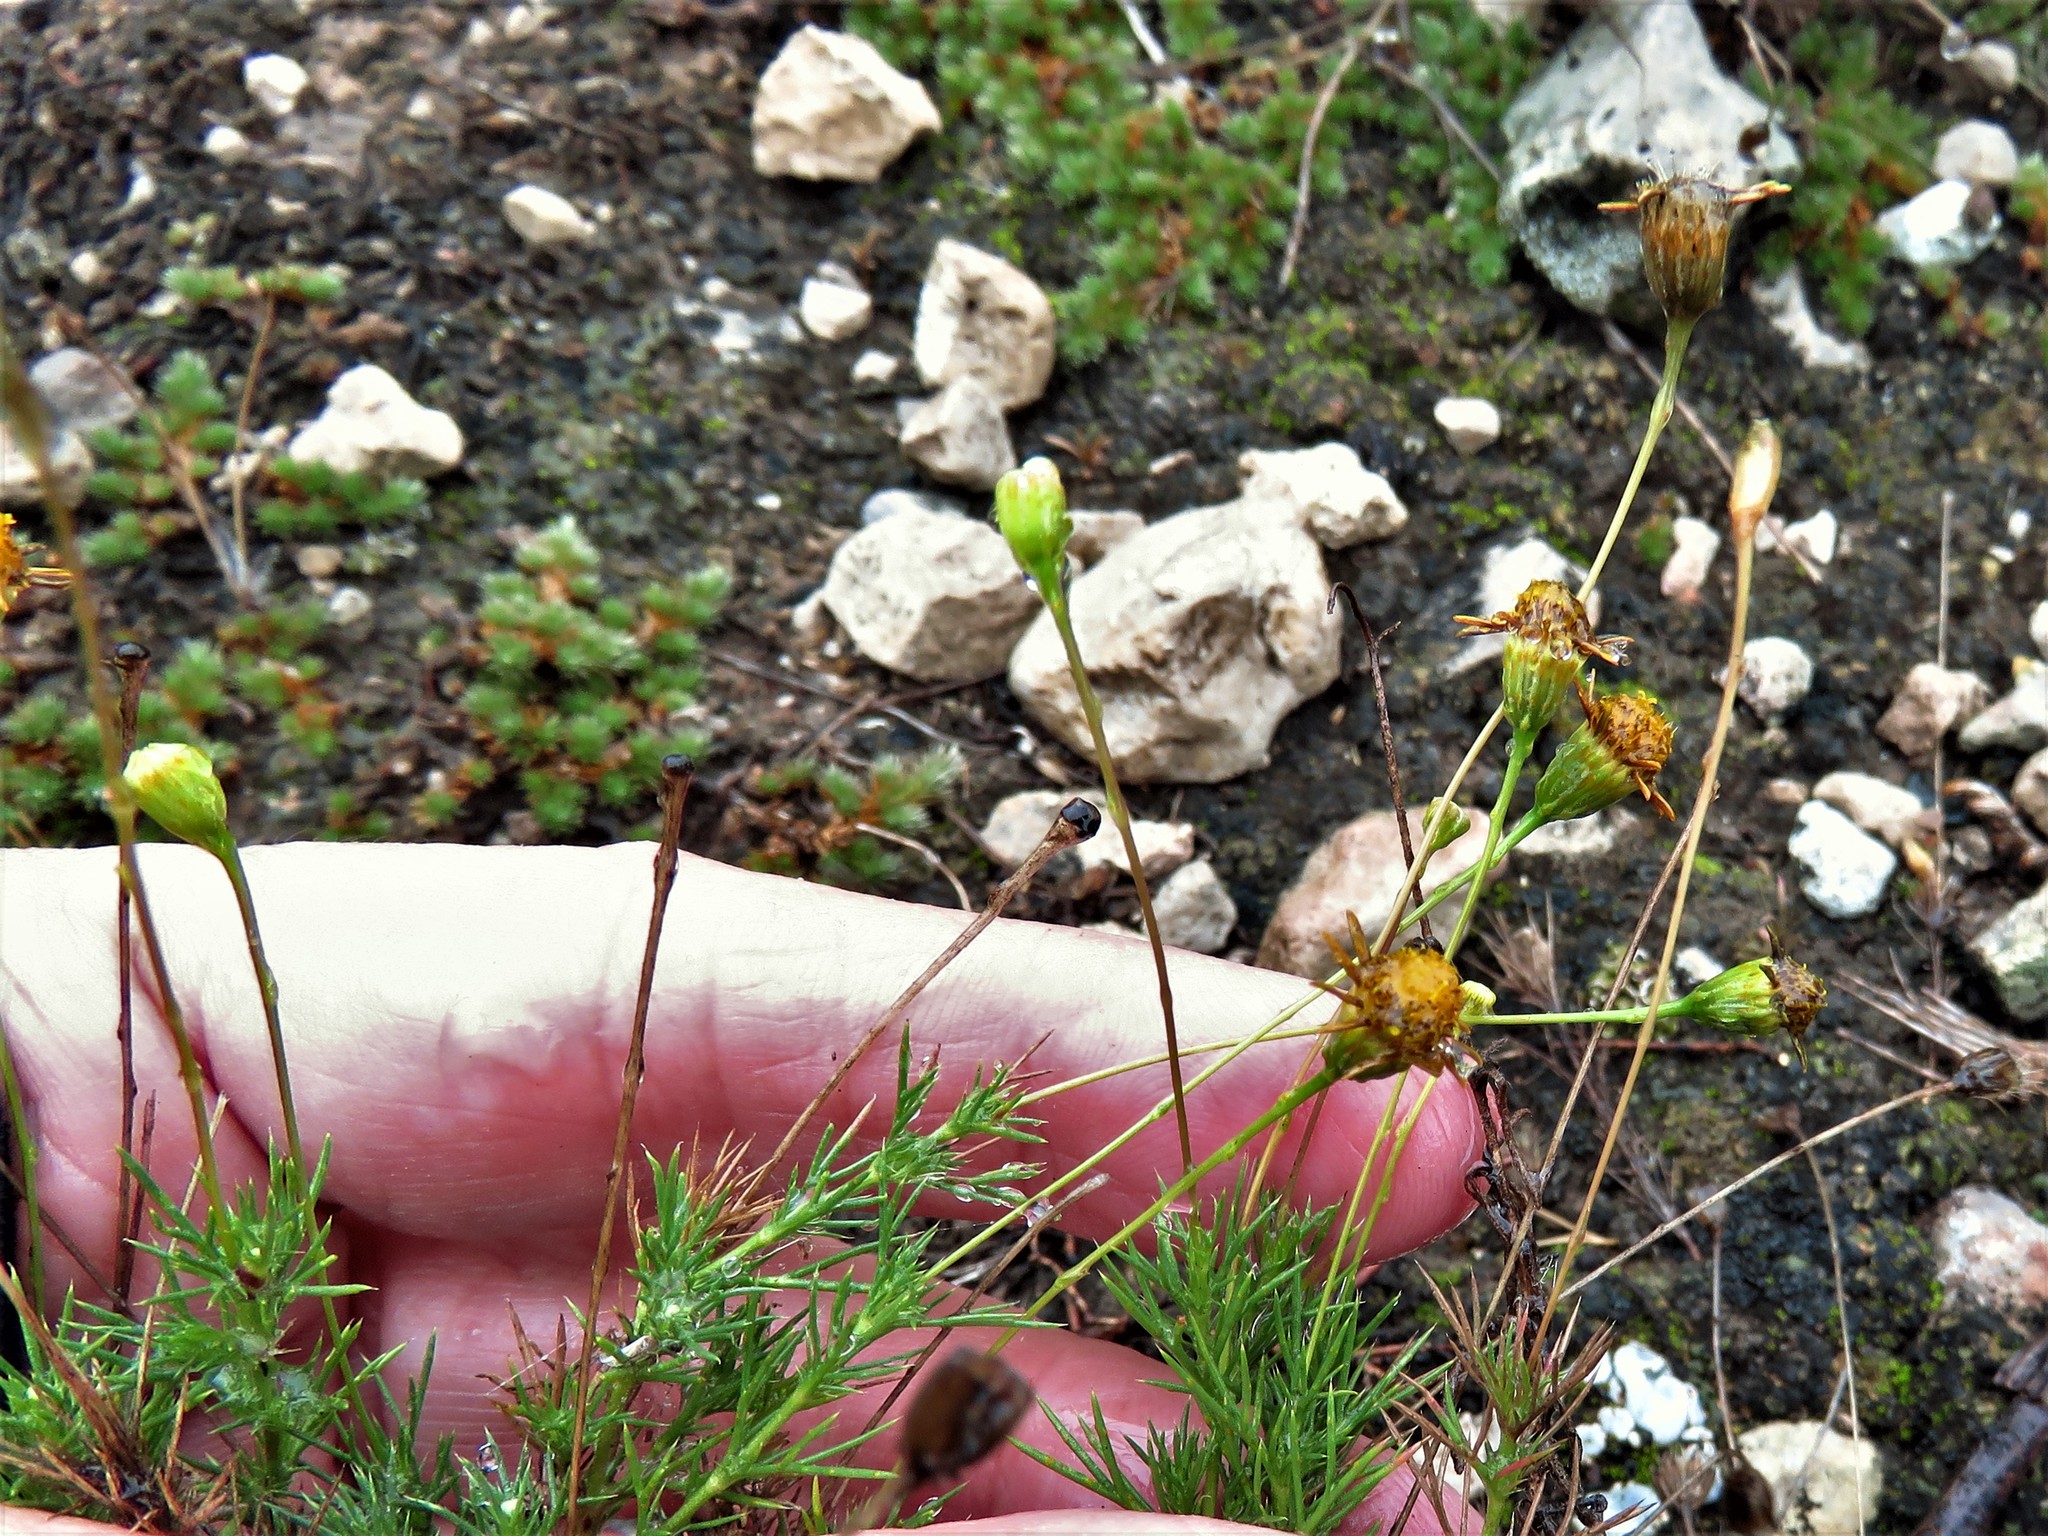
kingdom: Plantae
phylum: Tracheophyta
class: Magnoliopsida
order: Asterales
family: Asteraceae
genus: Thymophylla
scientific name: Thymophylla pentachaeta
